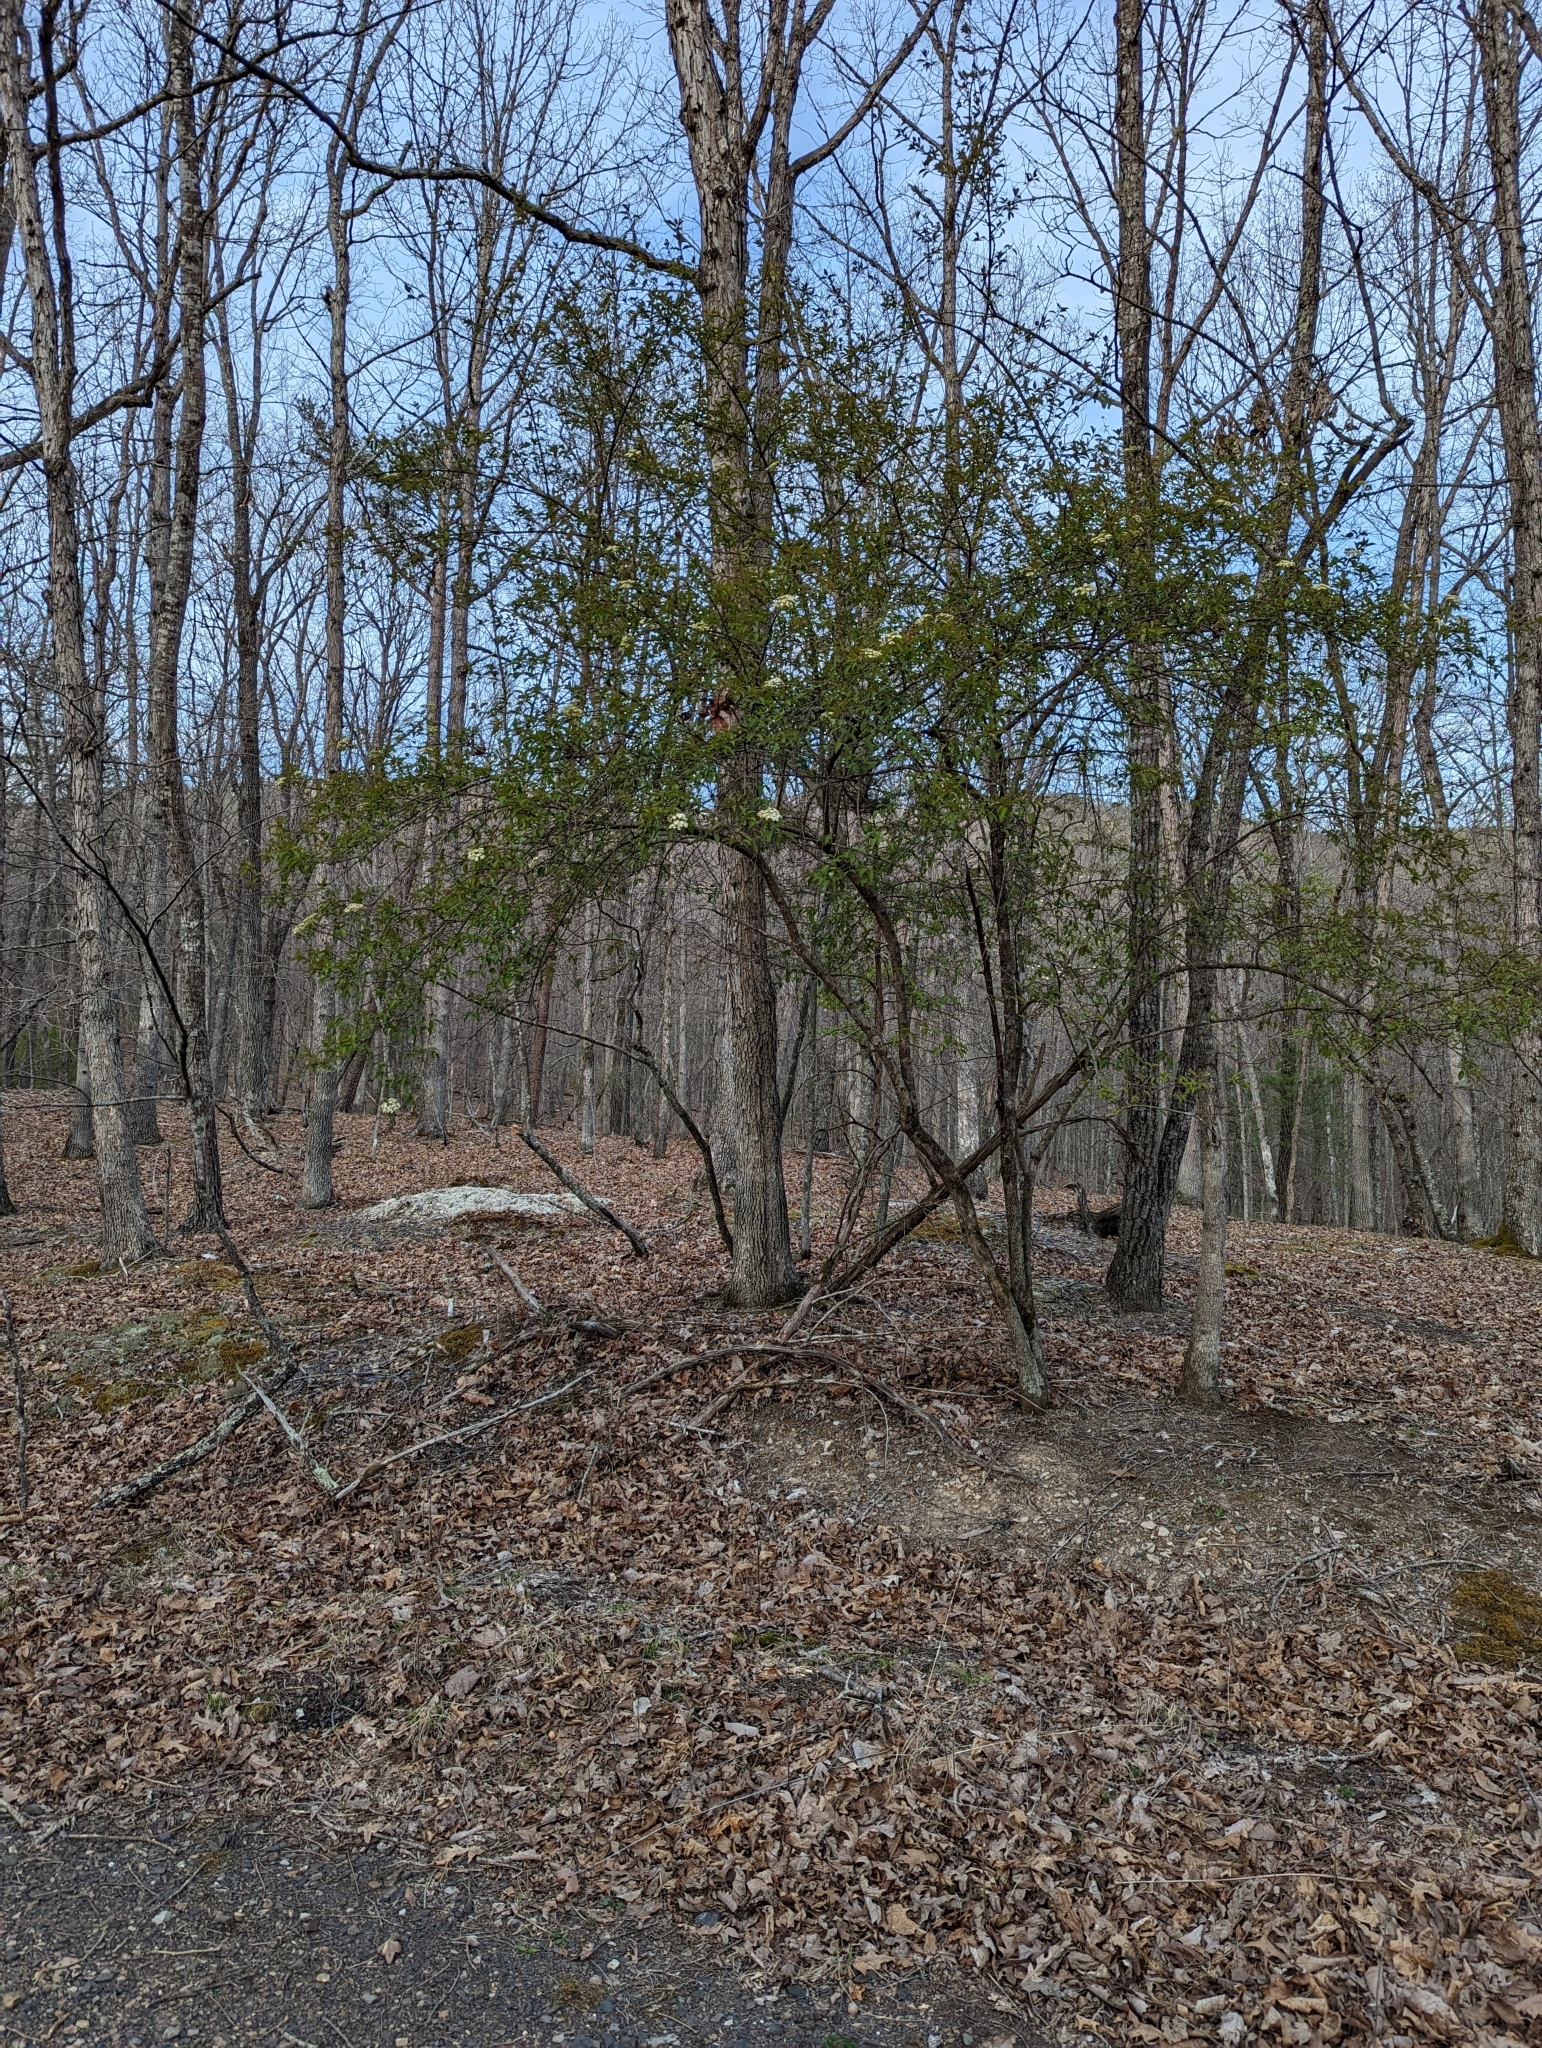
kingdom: Plantae
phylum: Tracheophyta
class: Magnoliopsida
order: Dipsacales
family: Viburnaceae
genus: Viburnum
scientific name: Viburnum prunifolium
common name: Black haw
